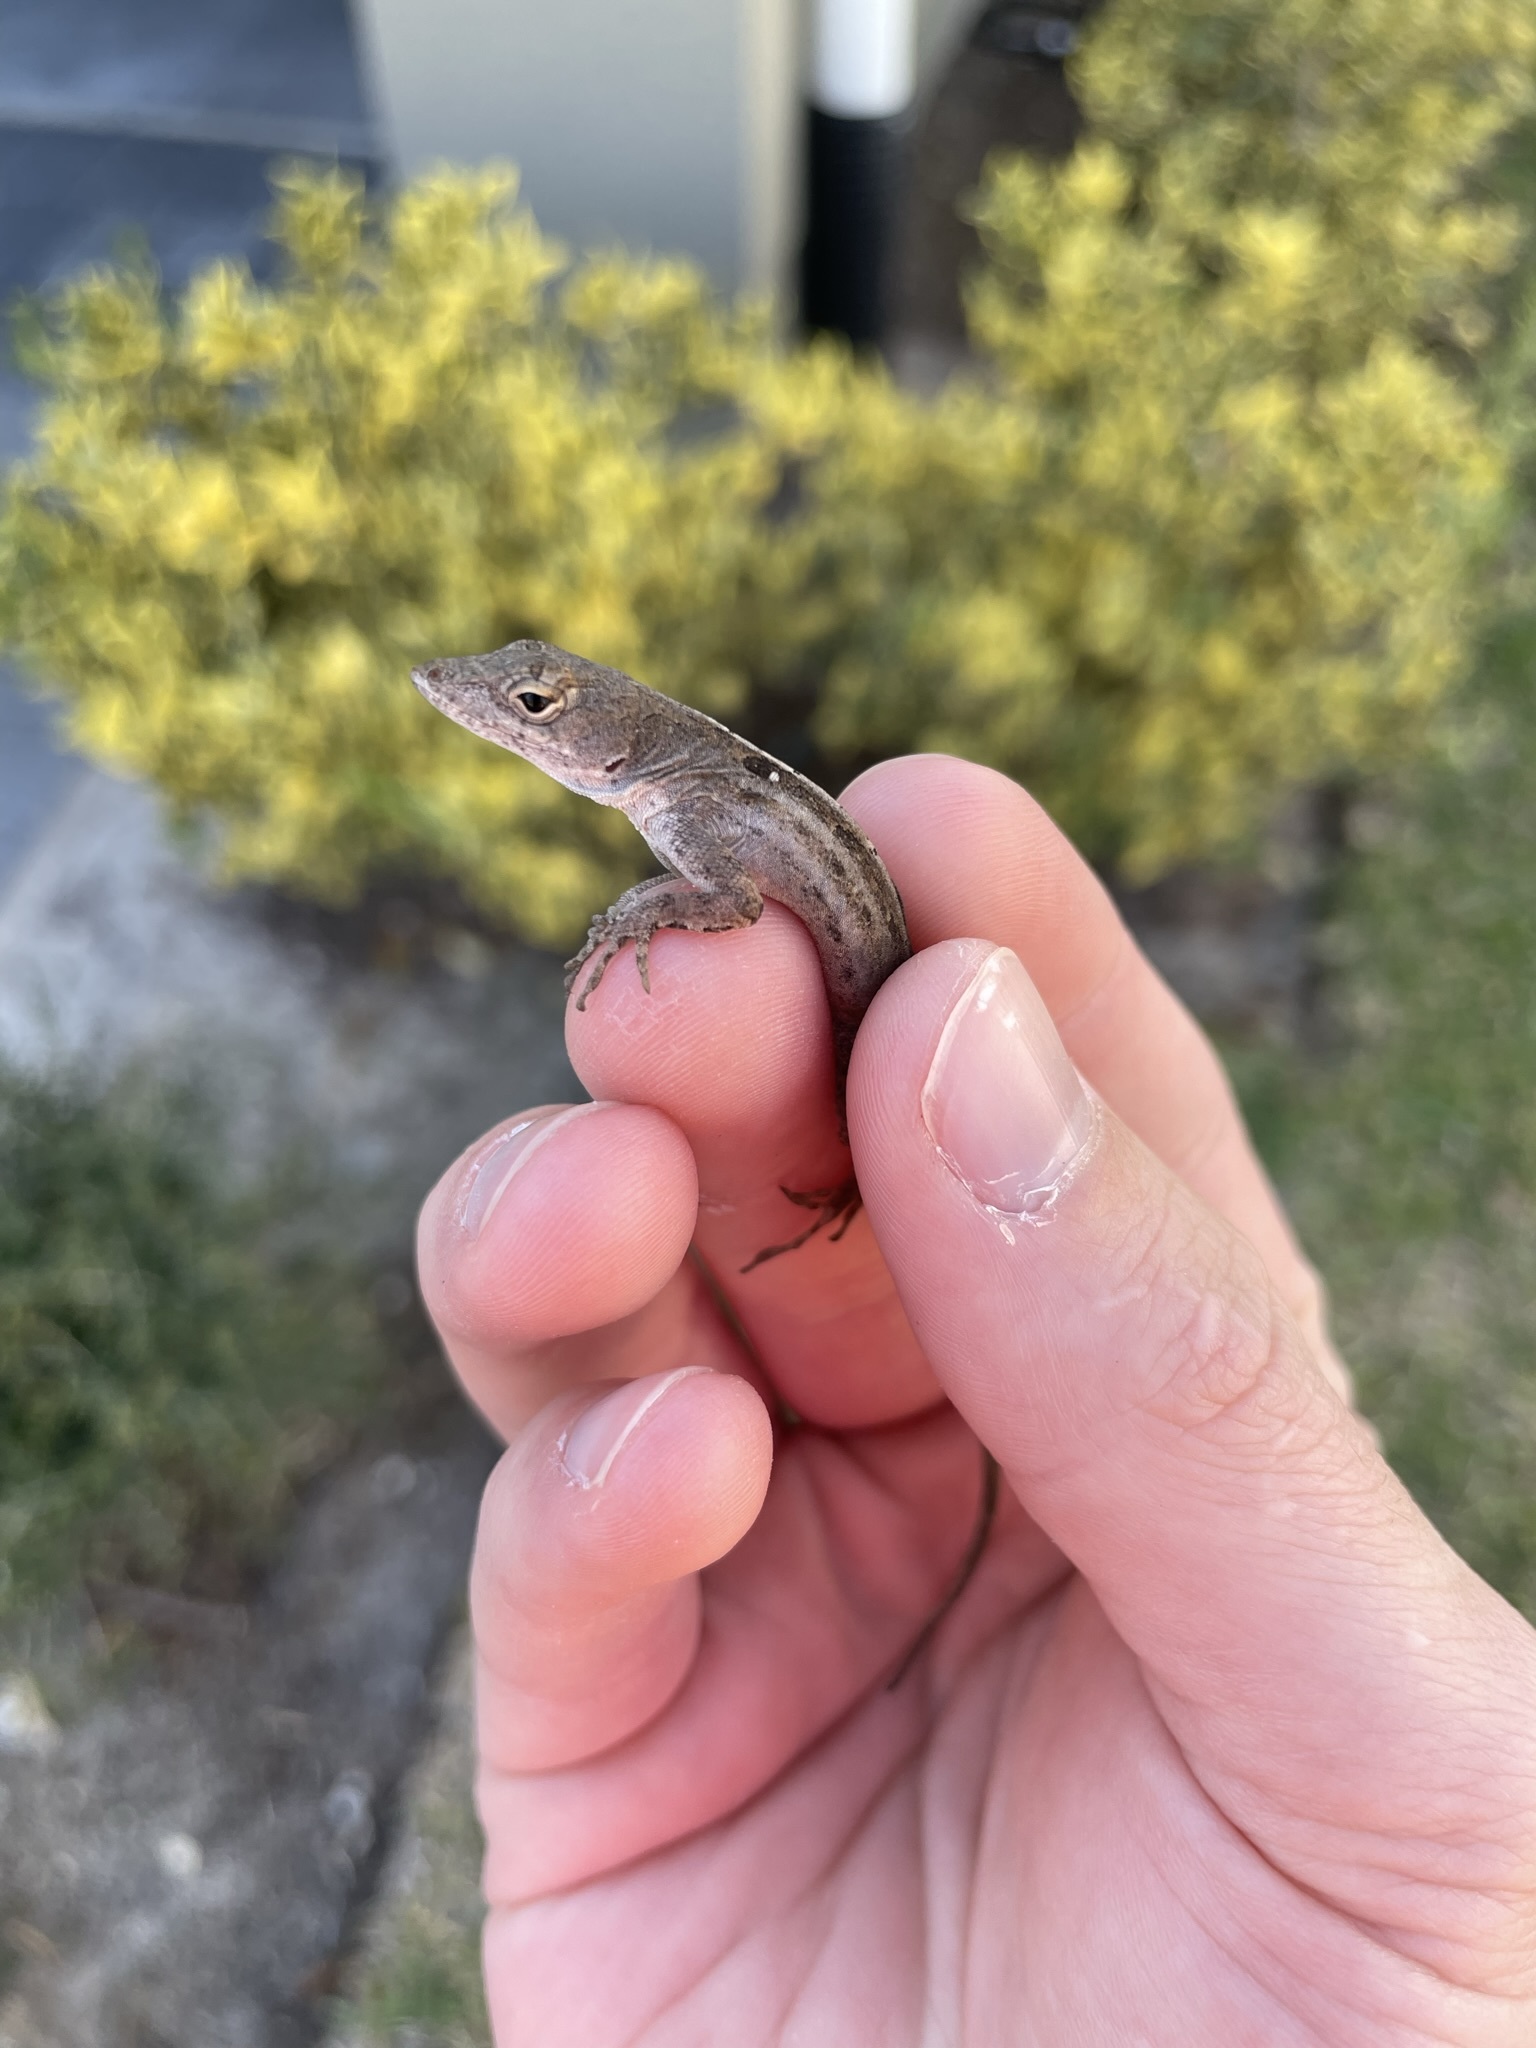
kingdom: Animalia
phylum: Chordata
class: Squamata
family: Dactyloidae
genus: Anolis
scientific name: Anolis sagrei
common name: Brown anole
